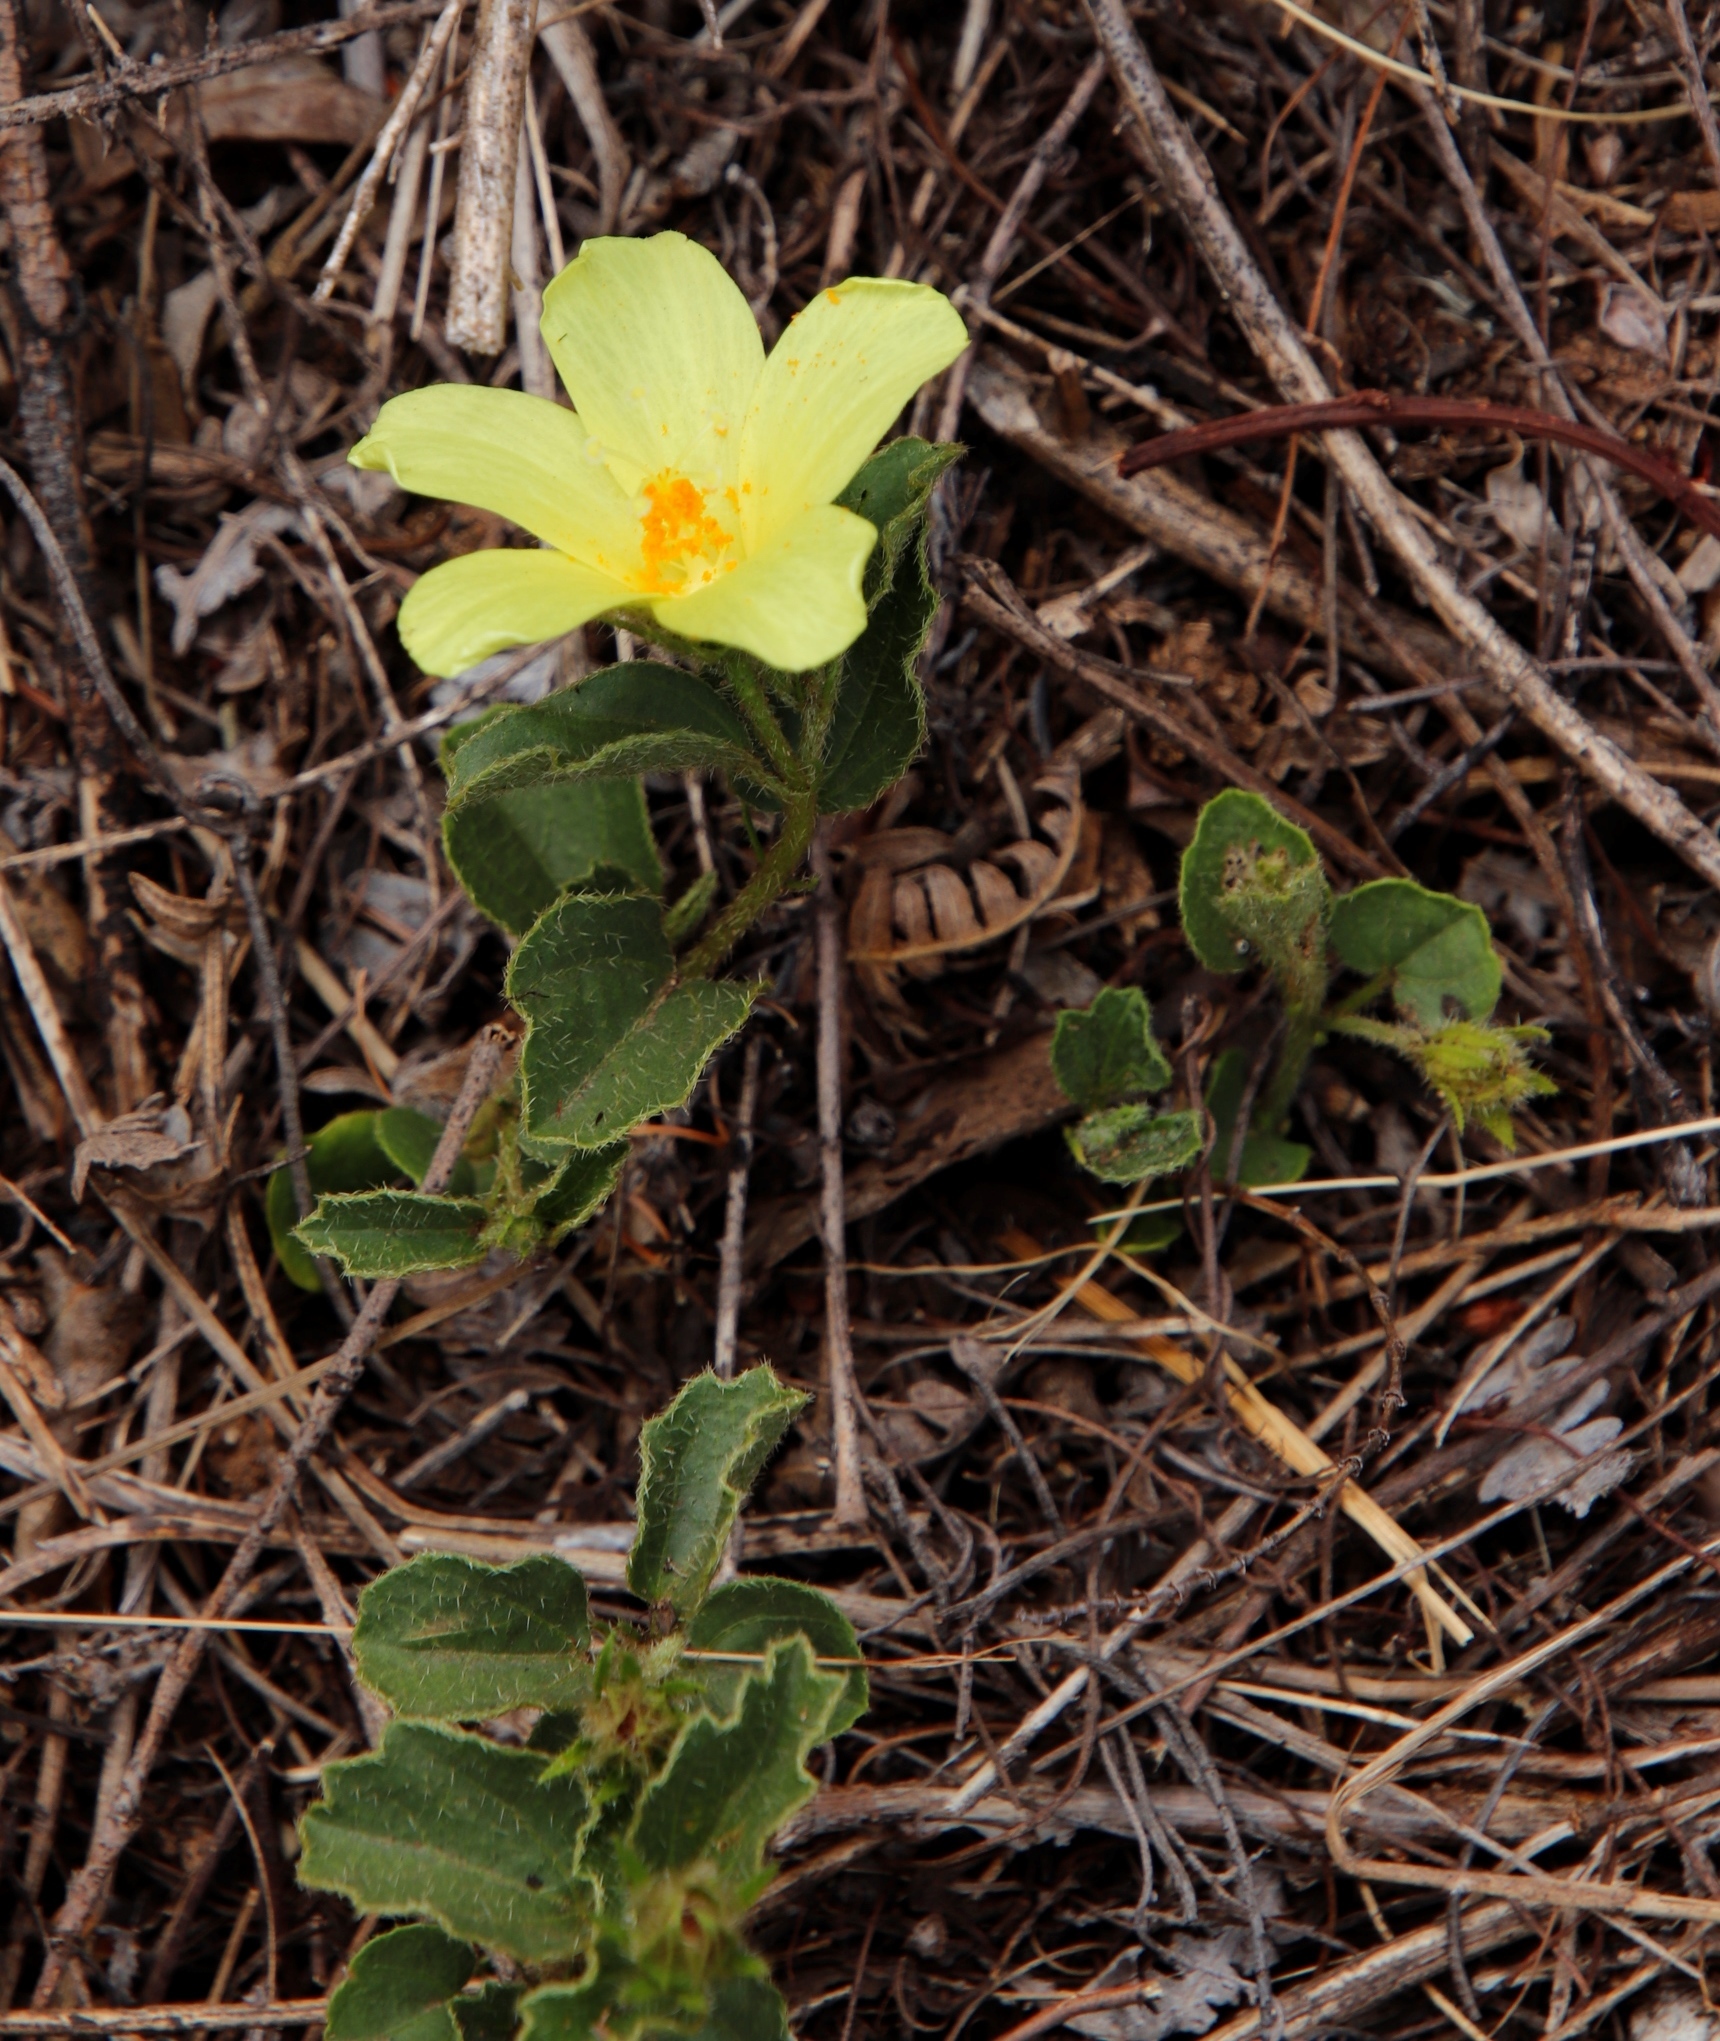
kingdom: Plantae
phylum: Tracheophyta
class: Magnoliopsida
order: Malvales
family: Malvaceae
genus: Hibiscus
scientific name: Hibiscus aethiopicus
